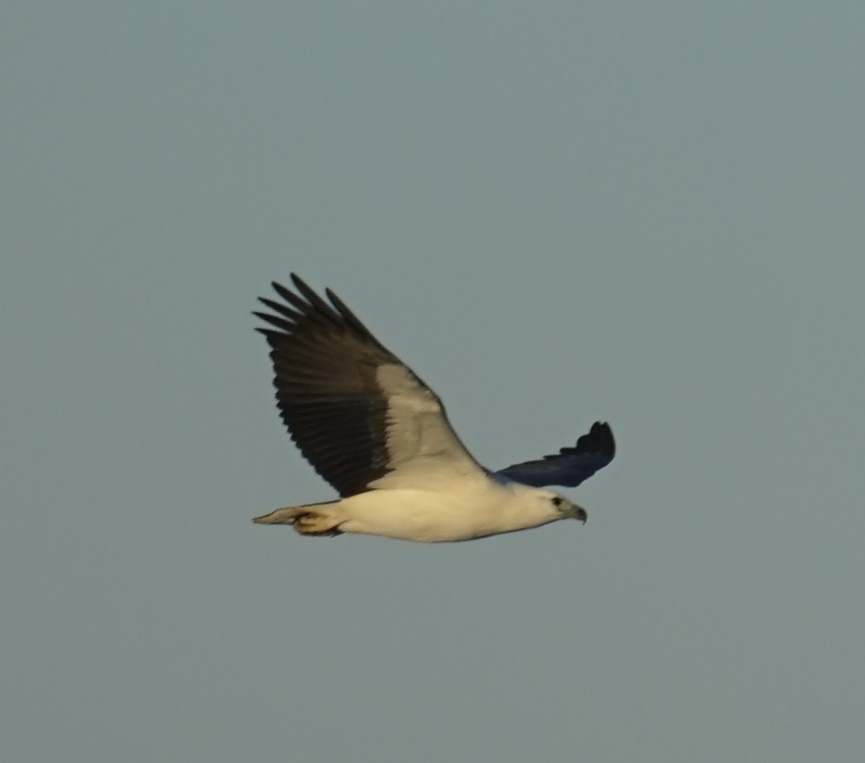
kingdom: Animalia
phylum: Chordata
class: Aves
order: Accipitriformes
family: Accipitridae
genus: Haliaeetus
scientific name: Haliaeetus leucogaster
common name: White-bellied sea eagle
